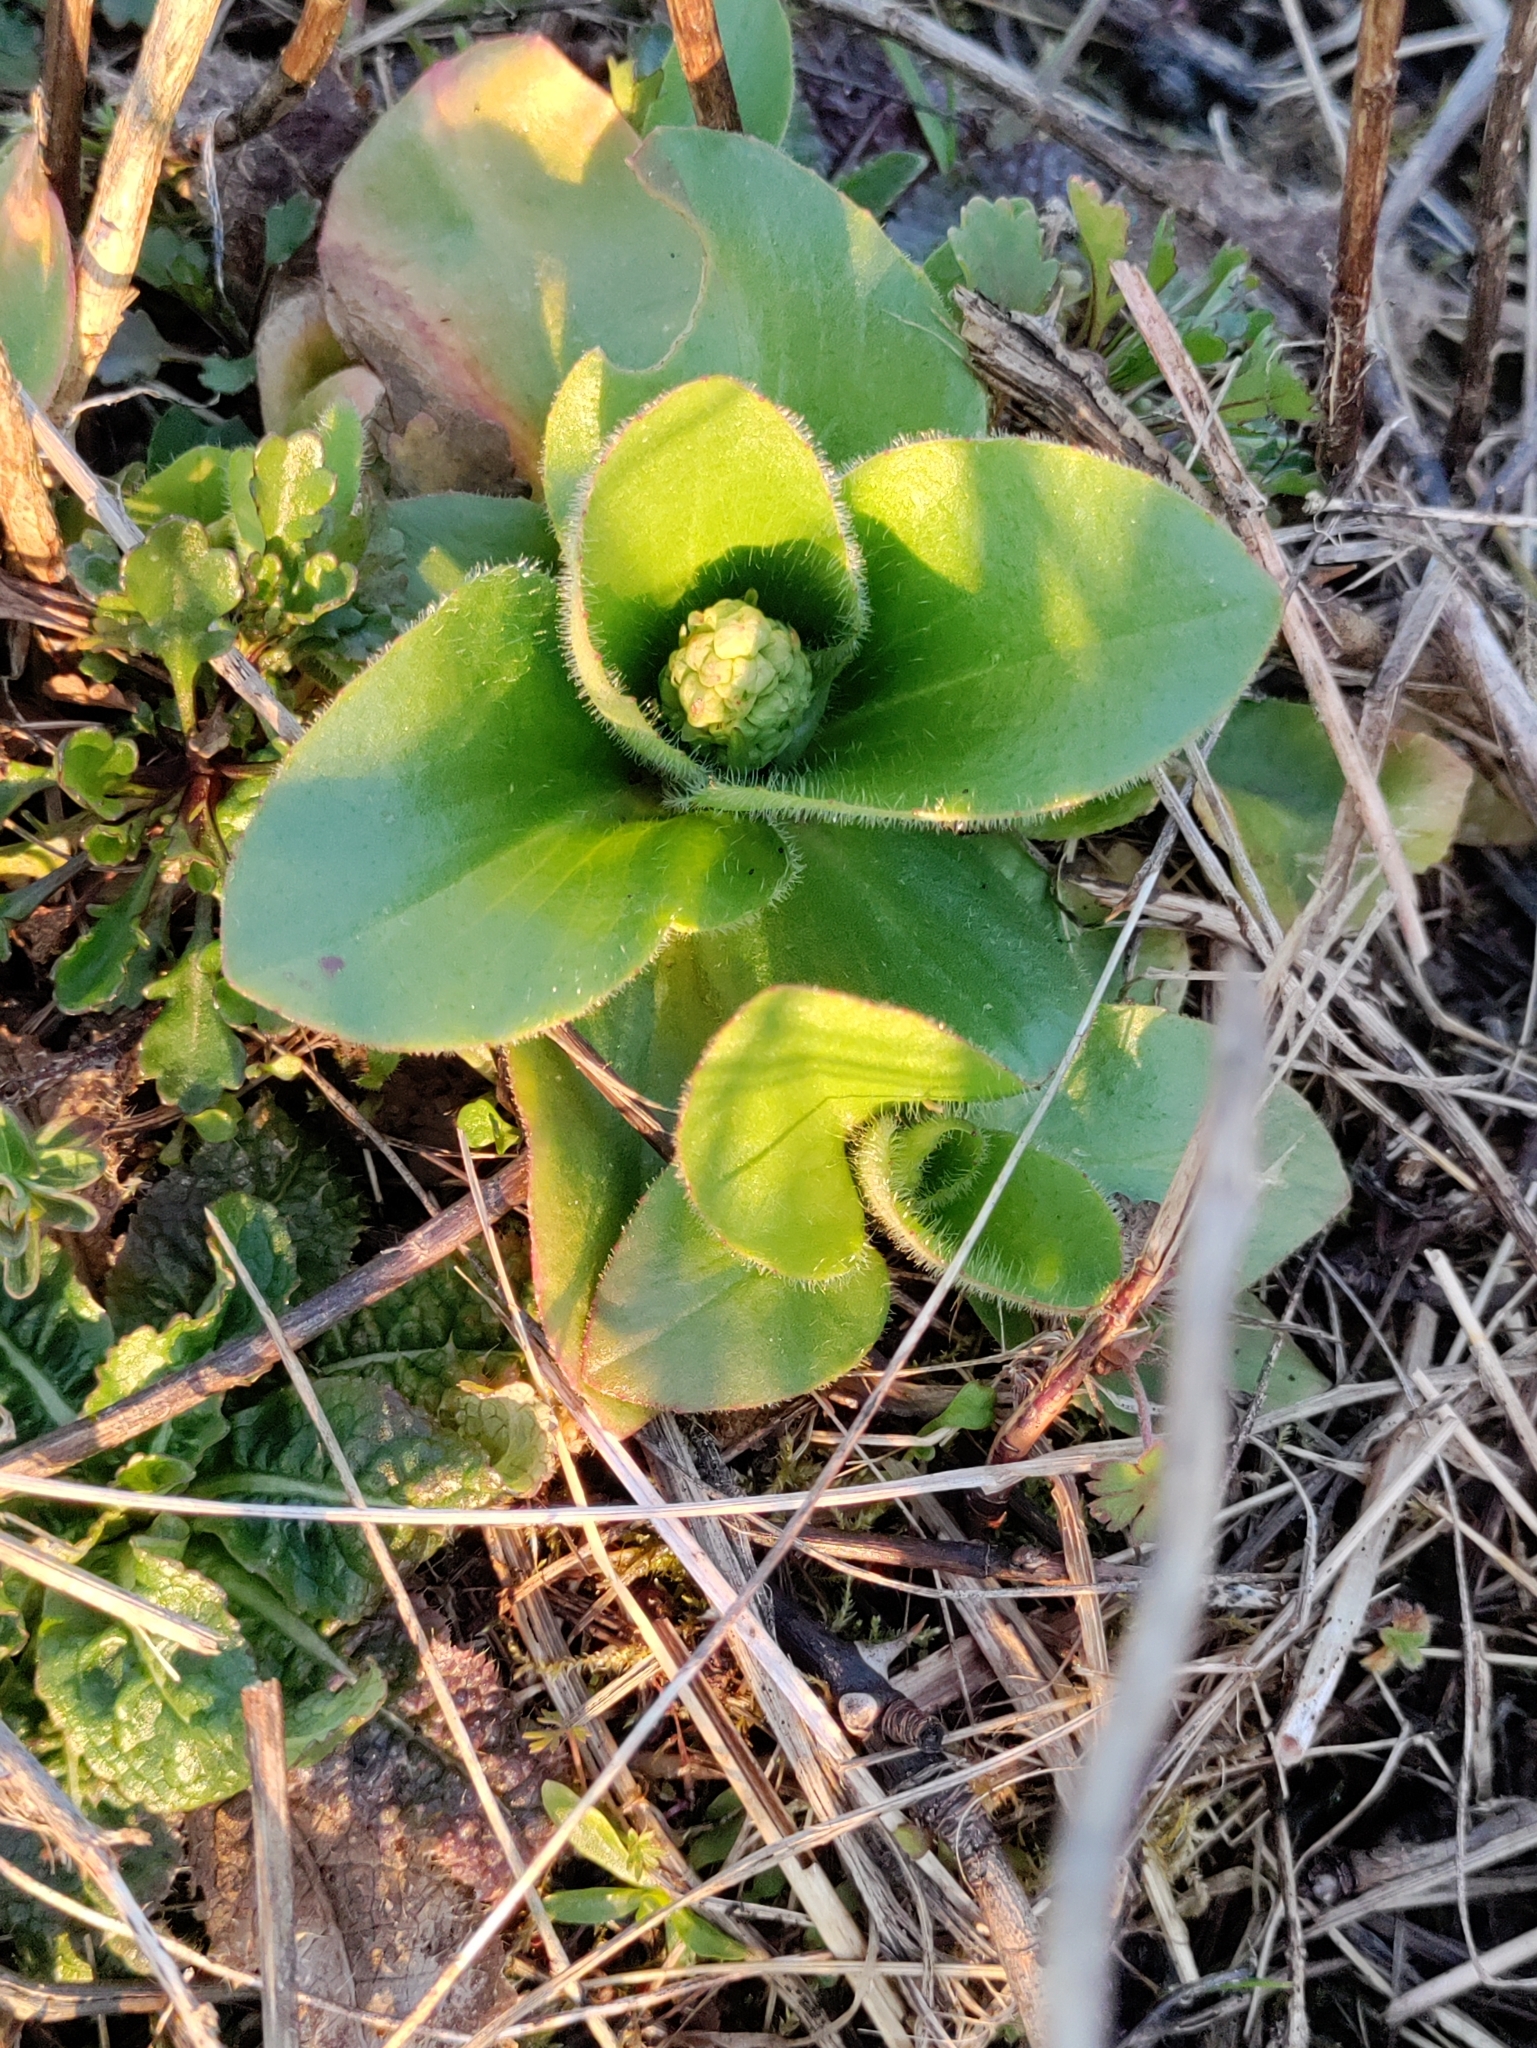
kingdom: Plantae
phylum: Tracheophyta
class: Magnoliopsida
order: Saxifragales
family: Saxifragaceae
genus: Micranthes
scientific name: Micranthes oregana
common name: Bog saxifrage
